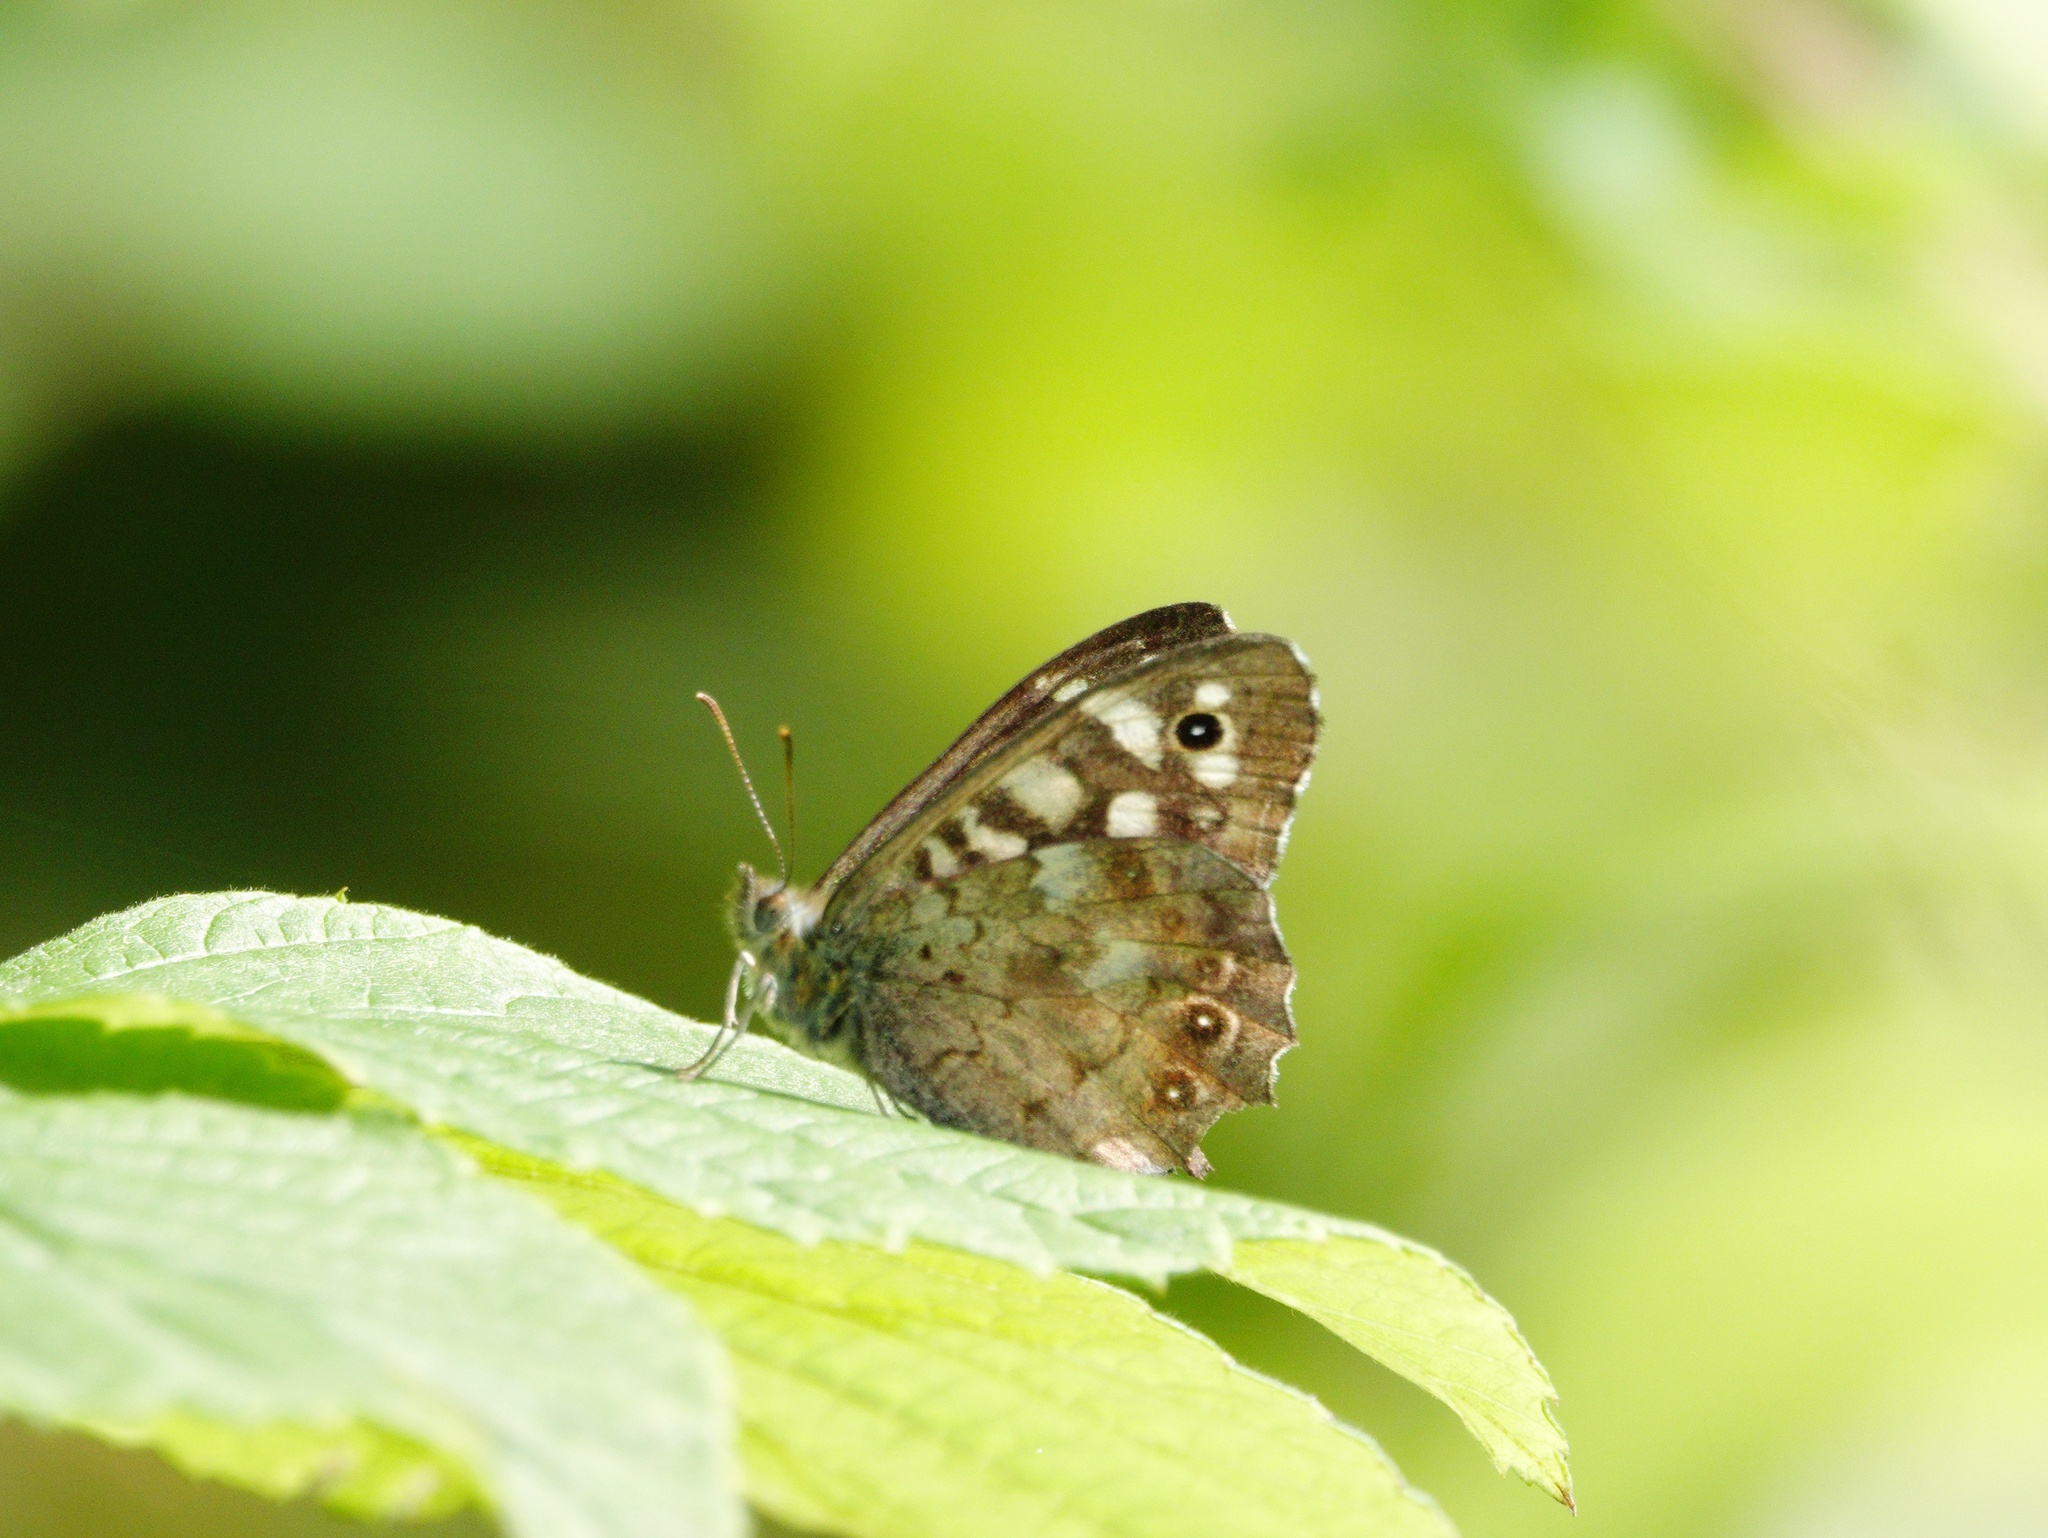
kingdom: Animalia
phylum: Arthropoda
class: Insecta
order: Lepidoptera
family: Nymphalidae
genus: Pararge
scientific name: Pararge aegeria
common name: Speckled wood
